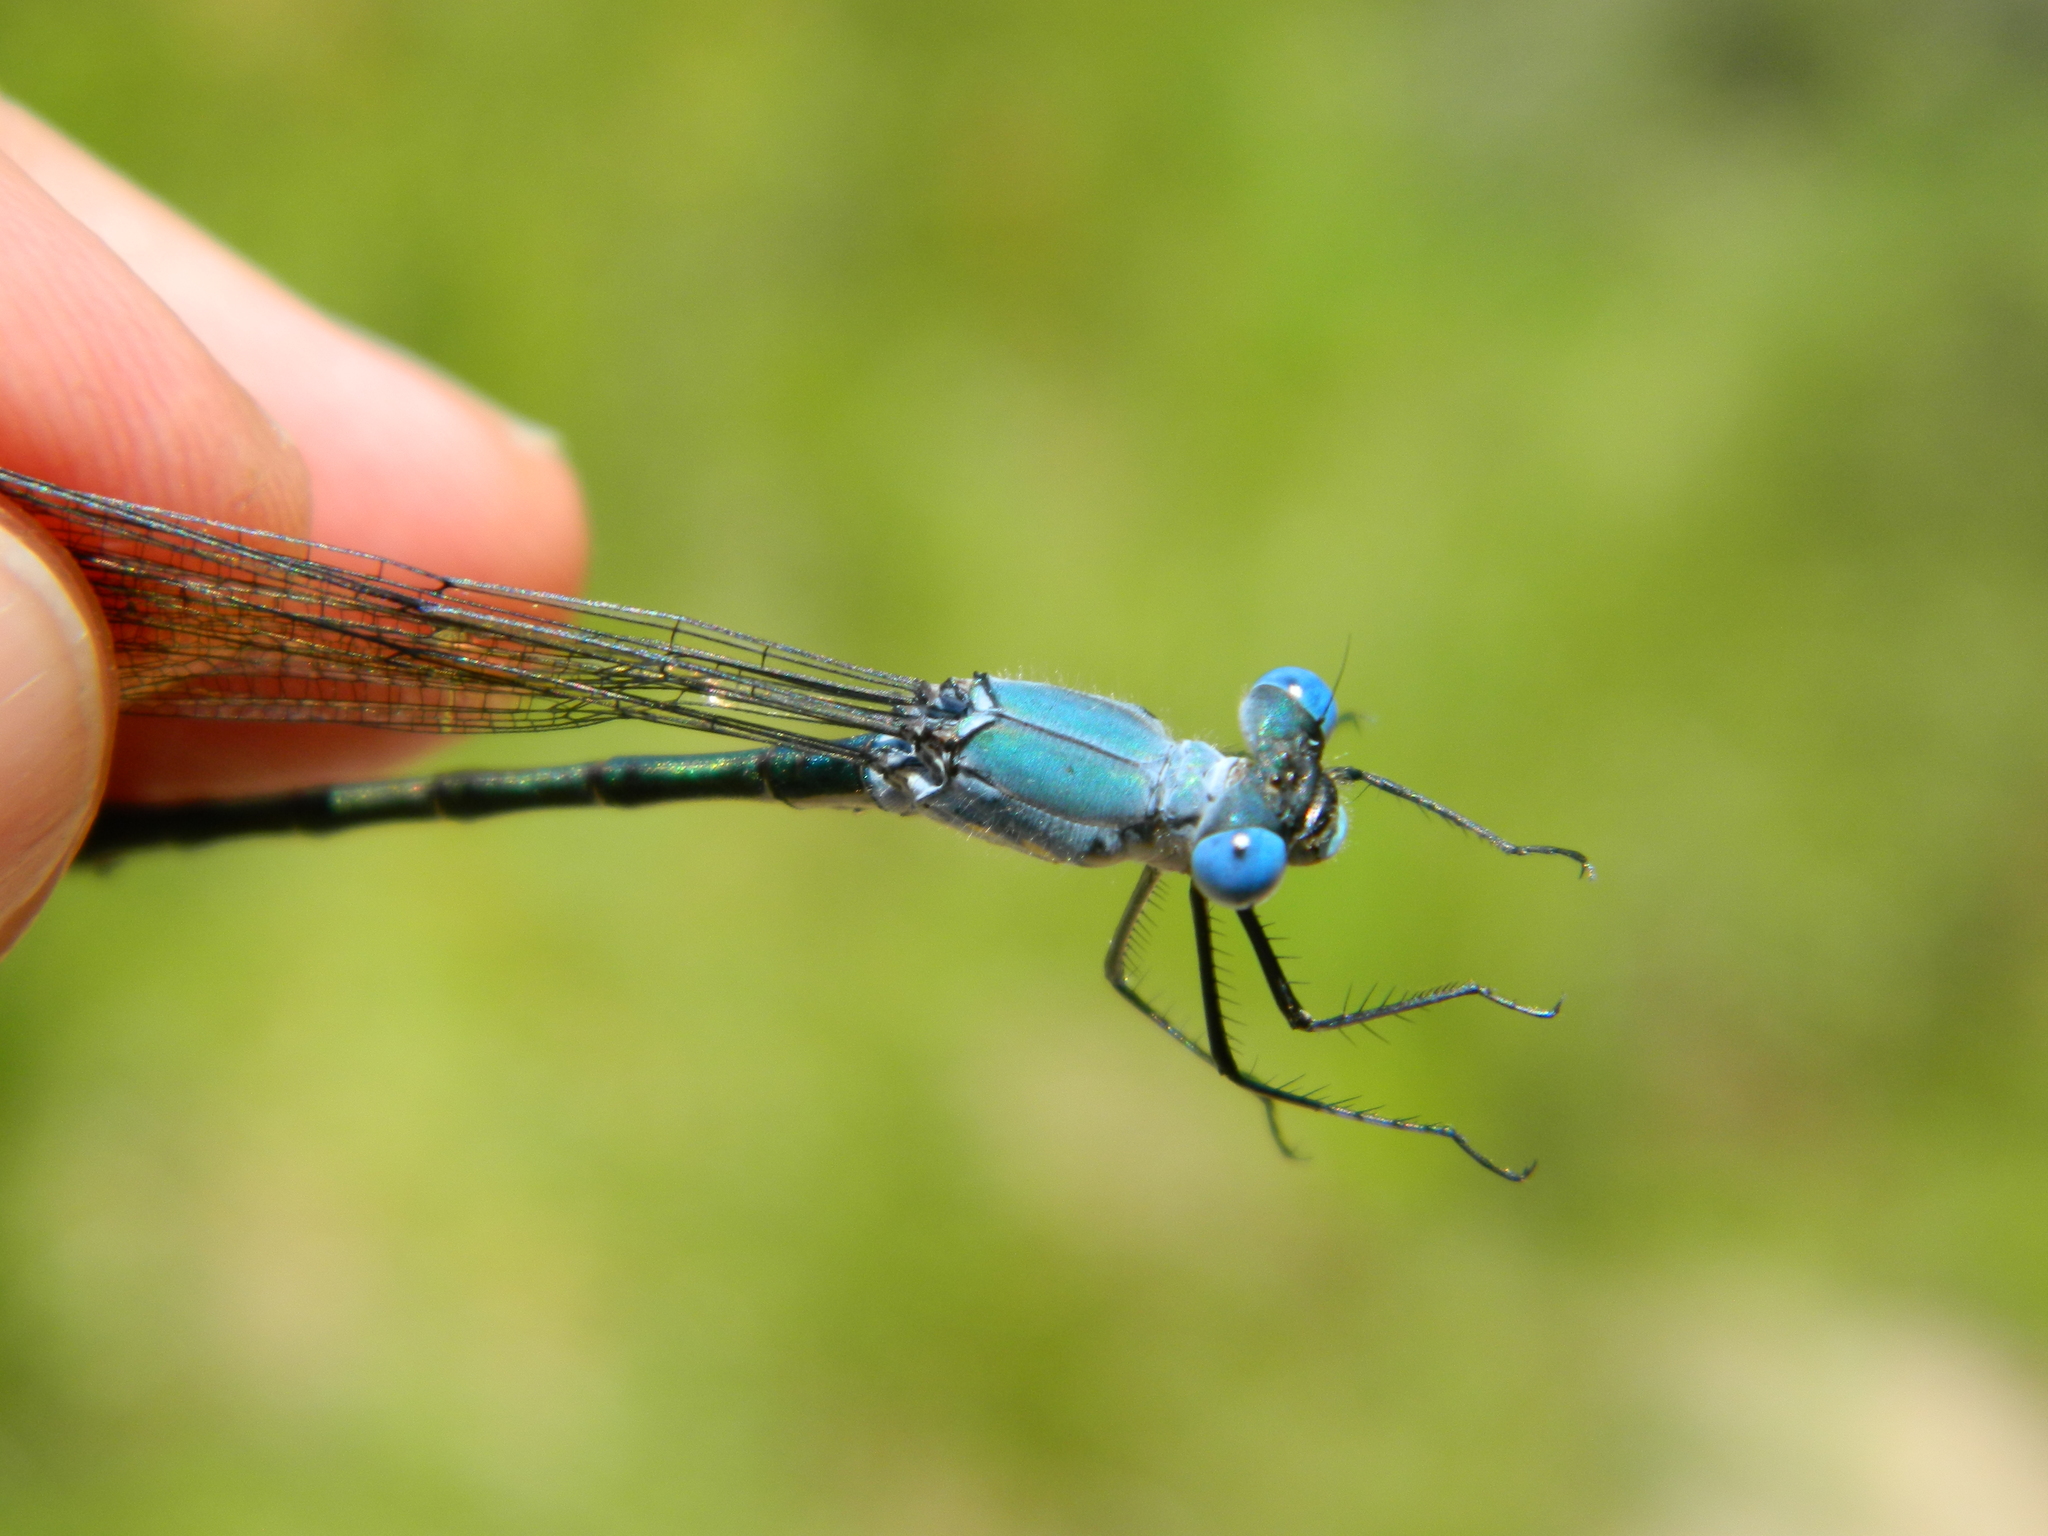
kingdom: Animalia
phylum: Arthropoda
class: Insecta
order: Odonata
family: Lestidae
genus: Lestes
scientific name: Lestes eurinus
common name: Amber-winged spreadwing
